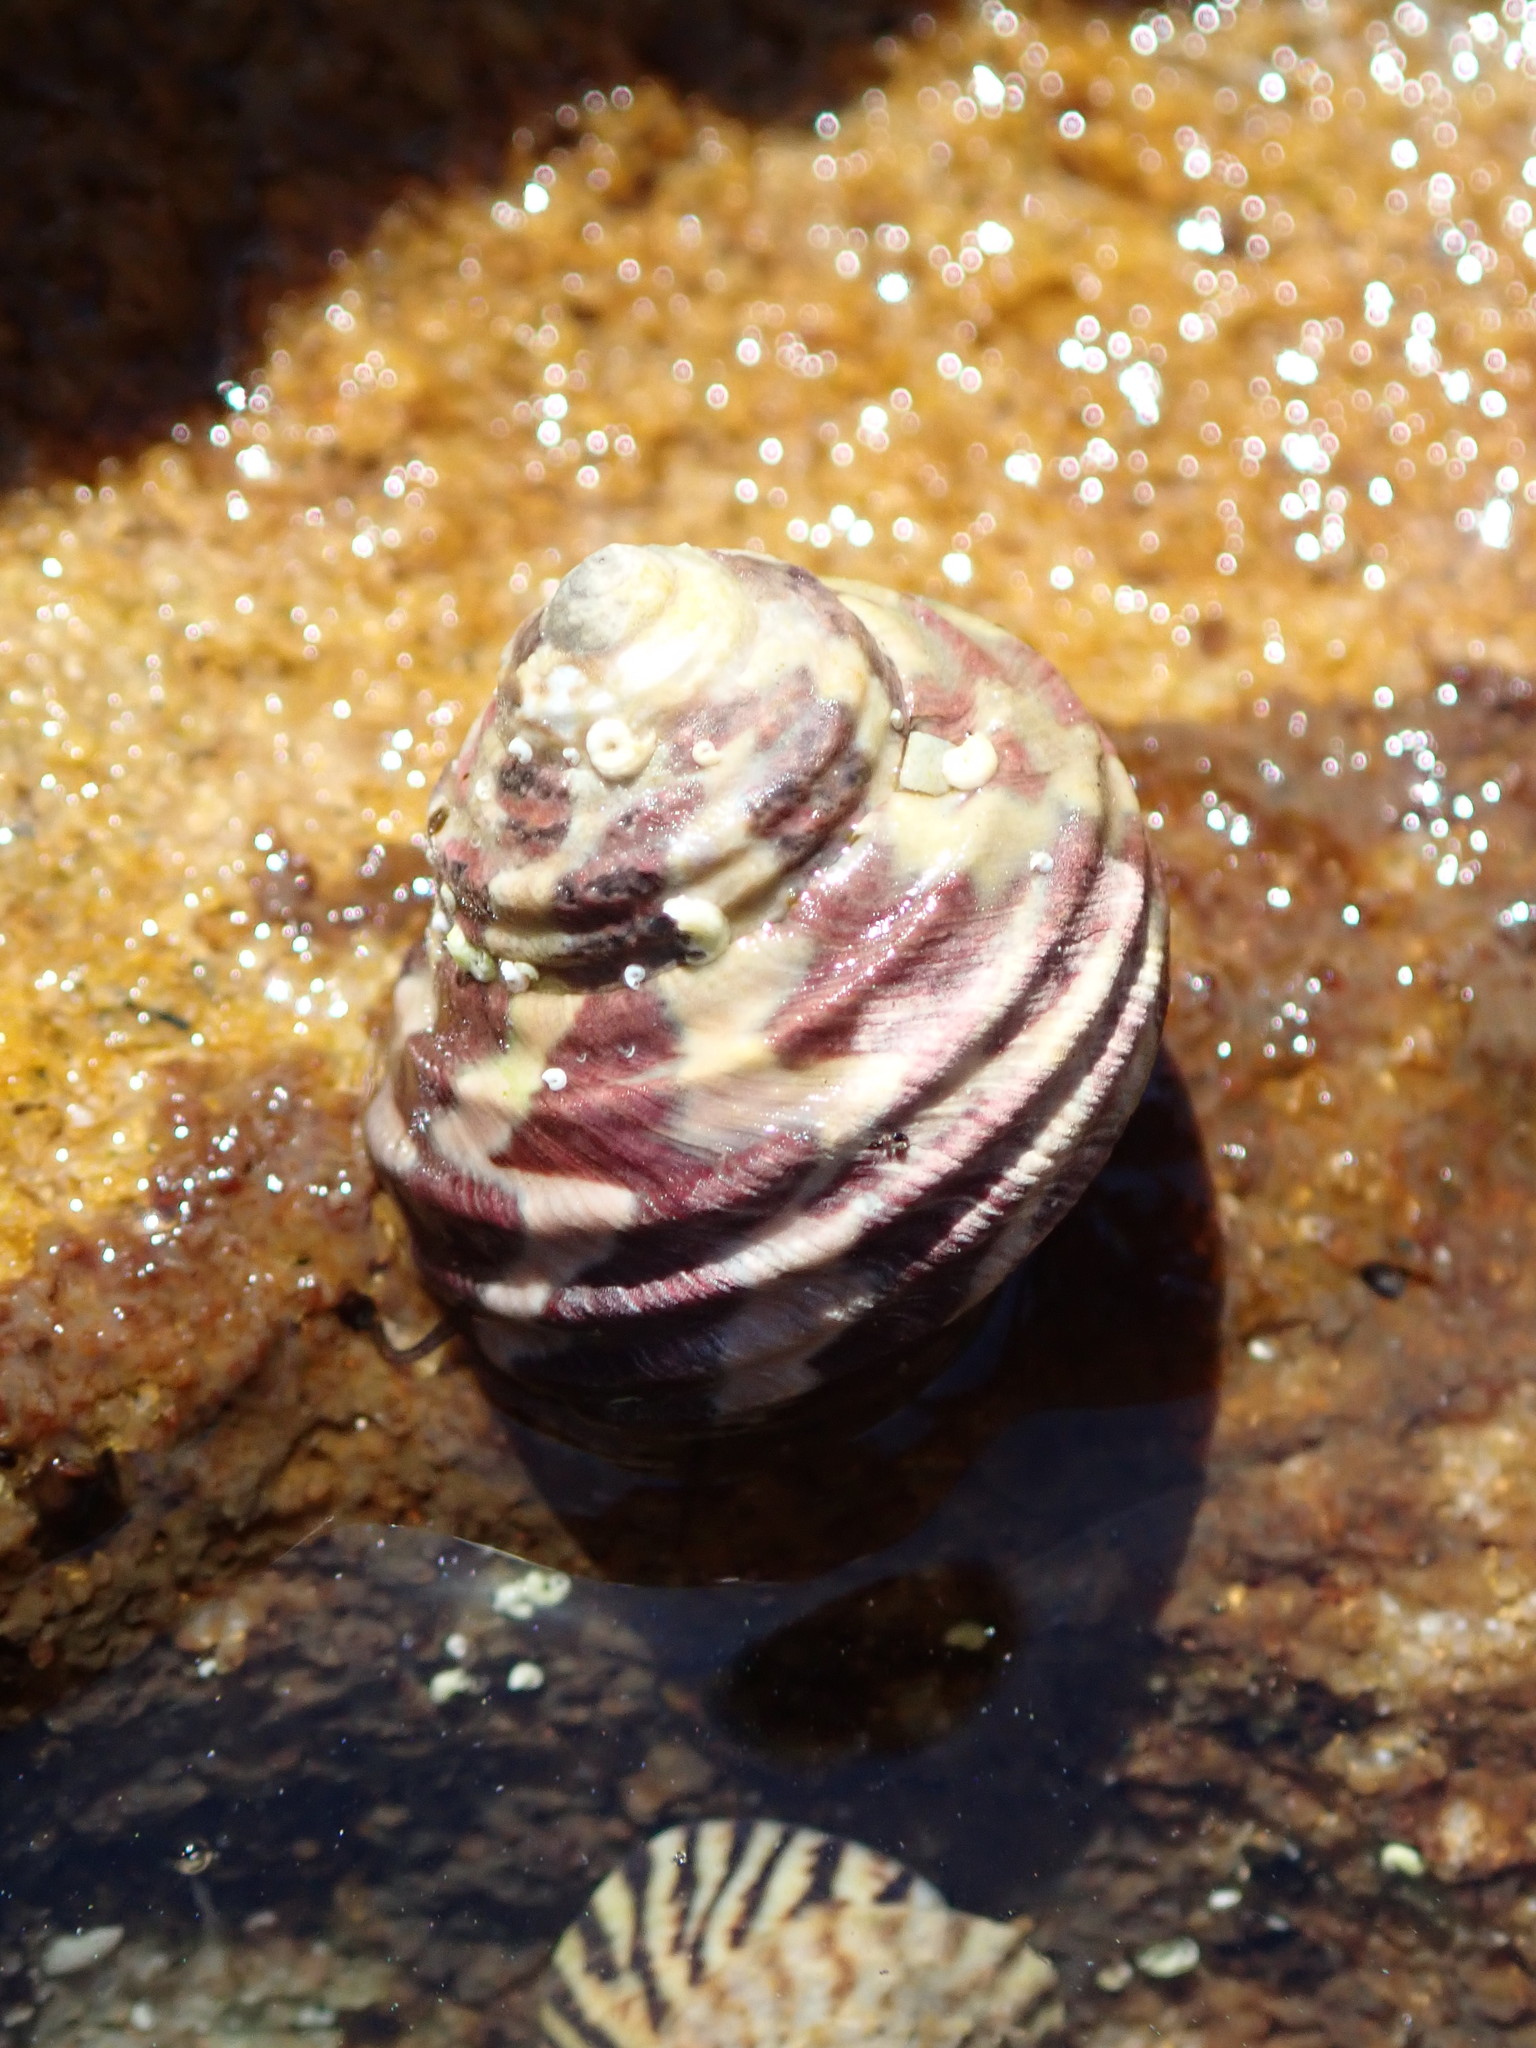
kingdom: Animalia
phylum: Mollusca
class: Gastropoda
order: Trochida
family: Trochidae
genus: Austrocochlea
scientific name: Austrocochlea porcata
